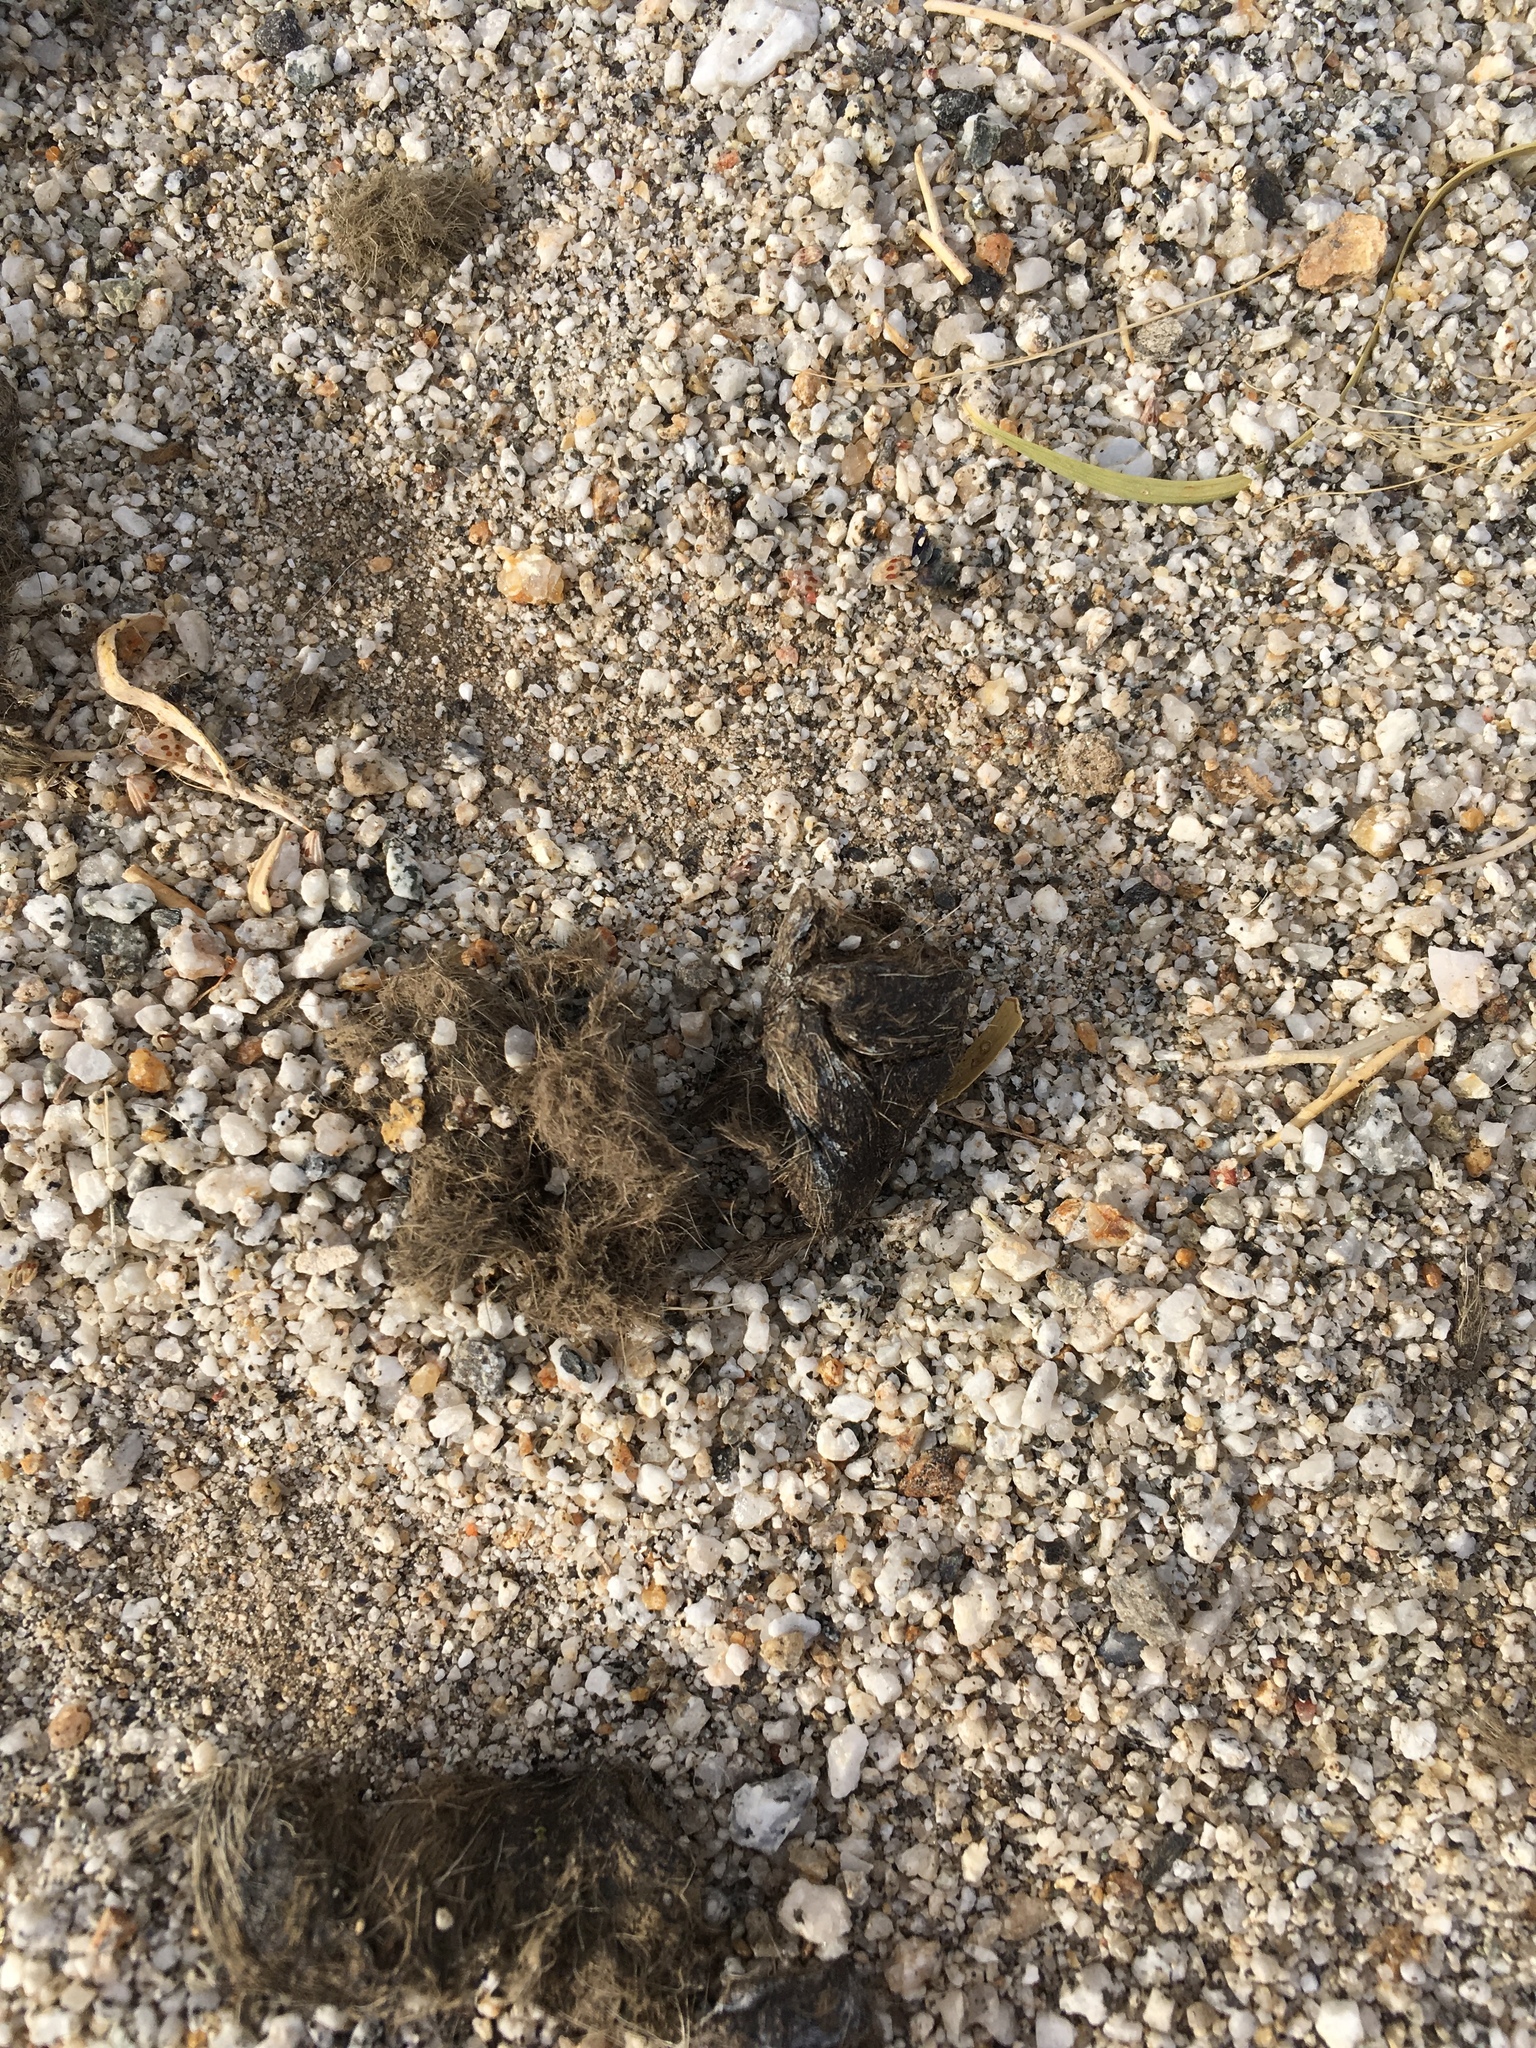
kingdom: Animalia
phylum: Chordata
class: Mammalia
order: Carnivora
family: Canidae
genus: Canis
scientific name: Canis latrans
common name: Coyote
